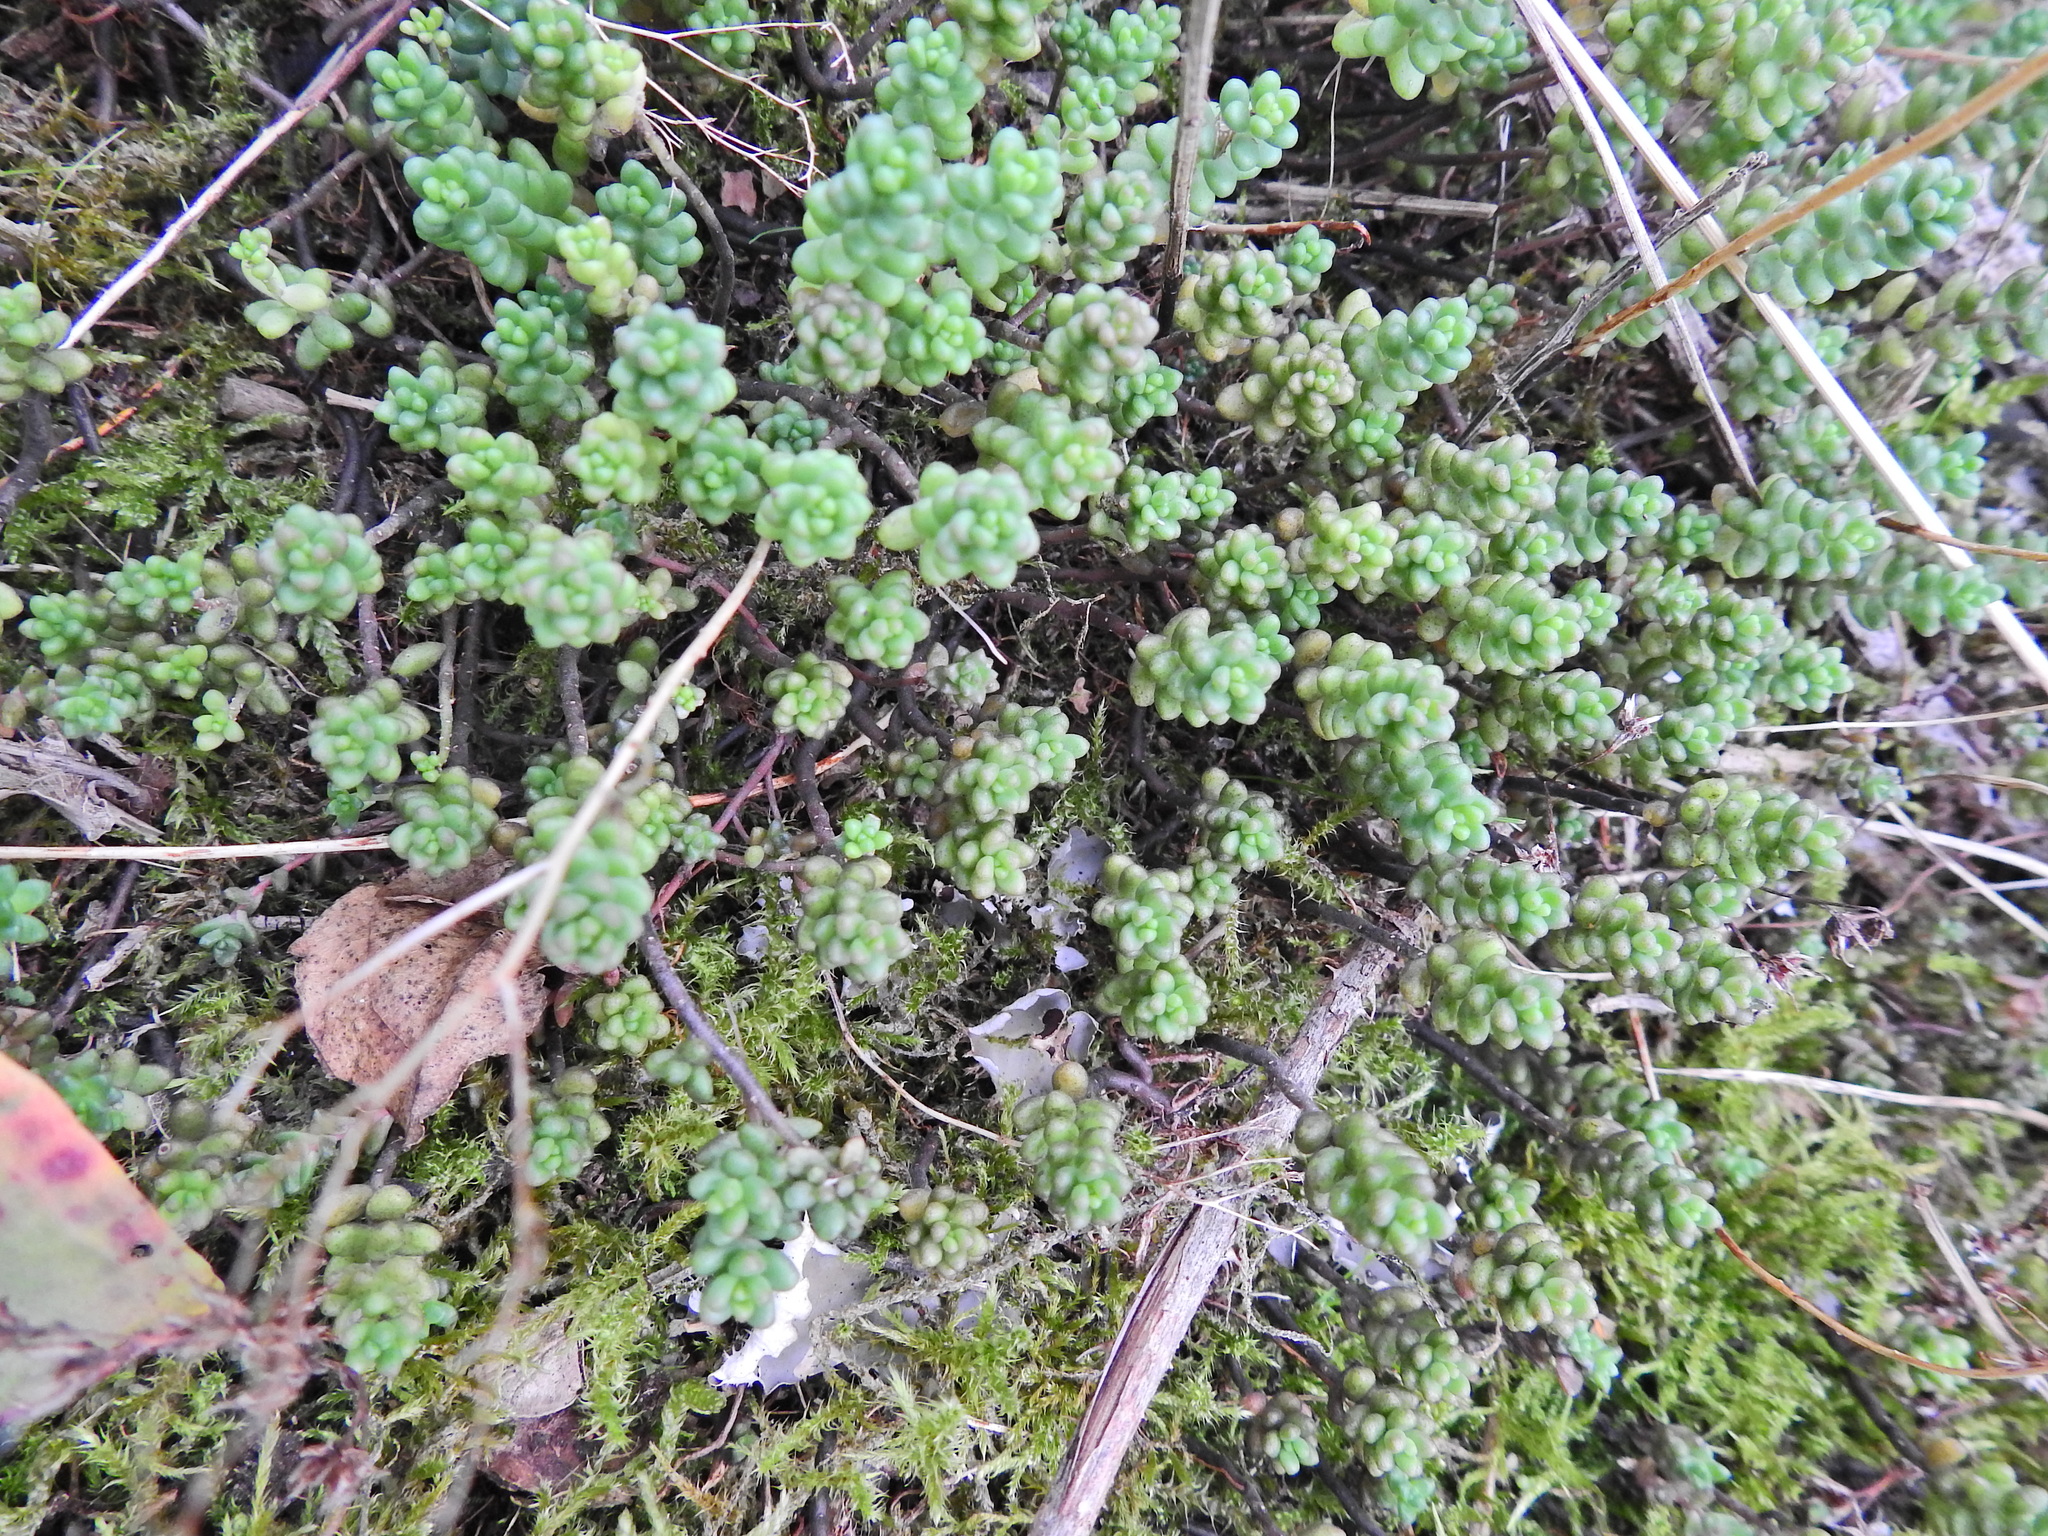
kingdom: Plantae
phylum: Tracheophyta
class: Magnoliopsida
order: Saxifragales
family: Crassulaceae
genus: Sedum
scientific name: Sedum album
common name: White stonecrop
